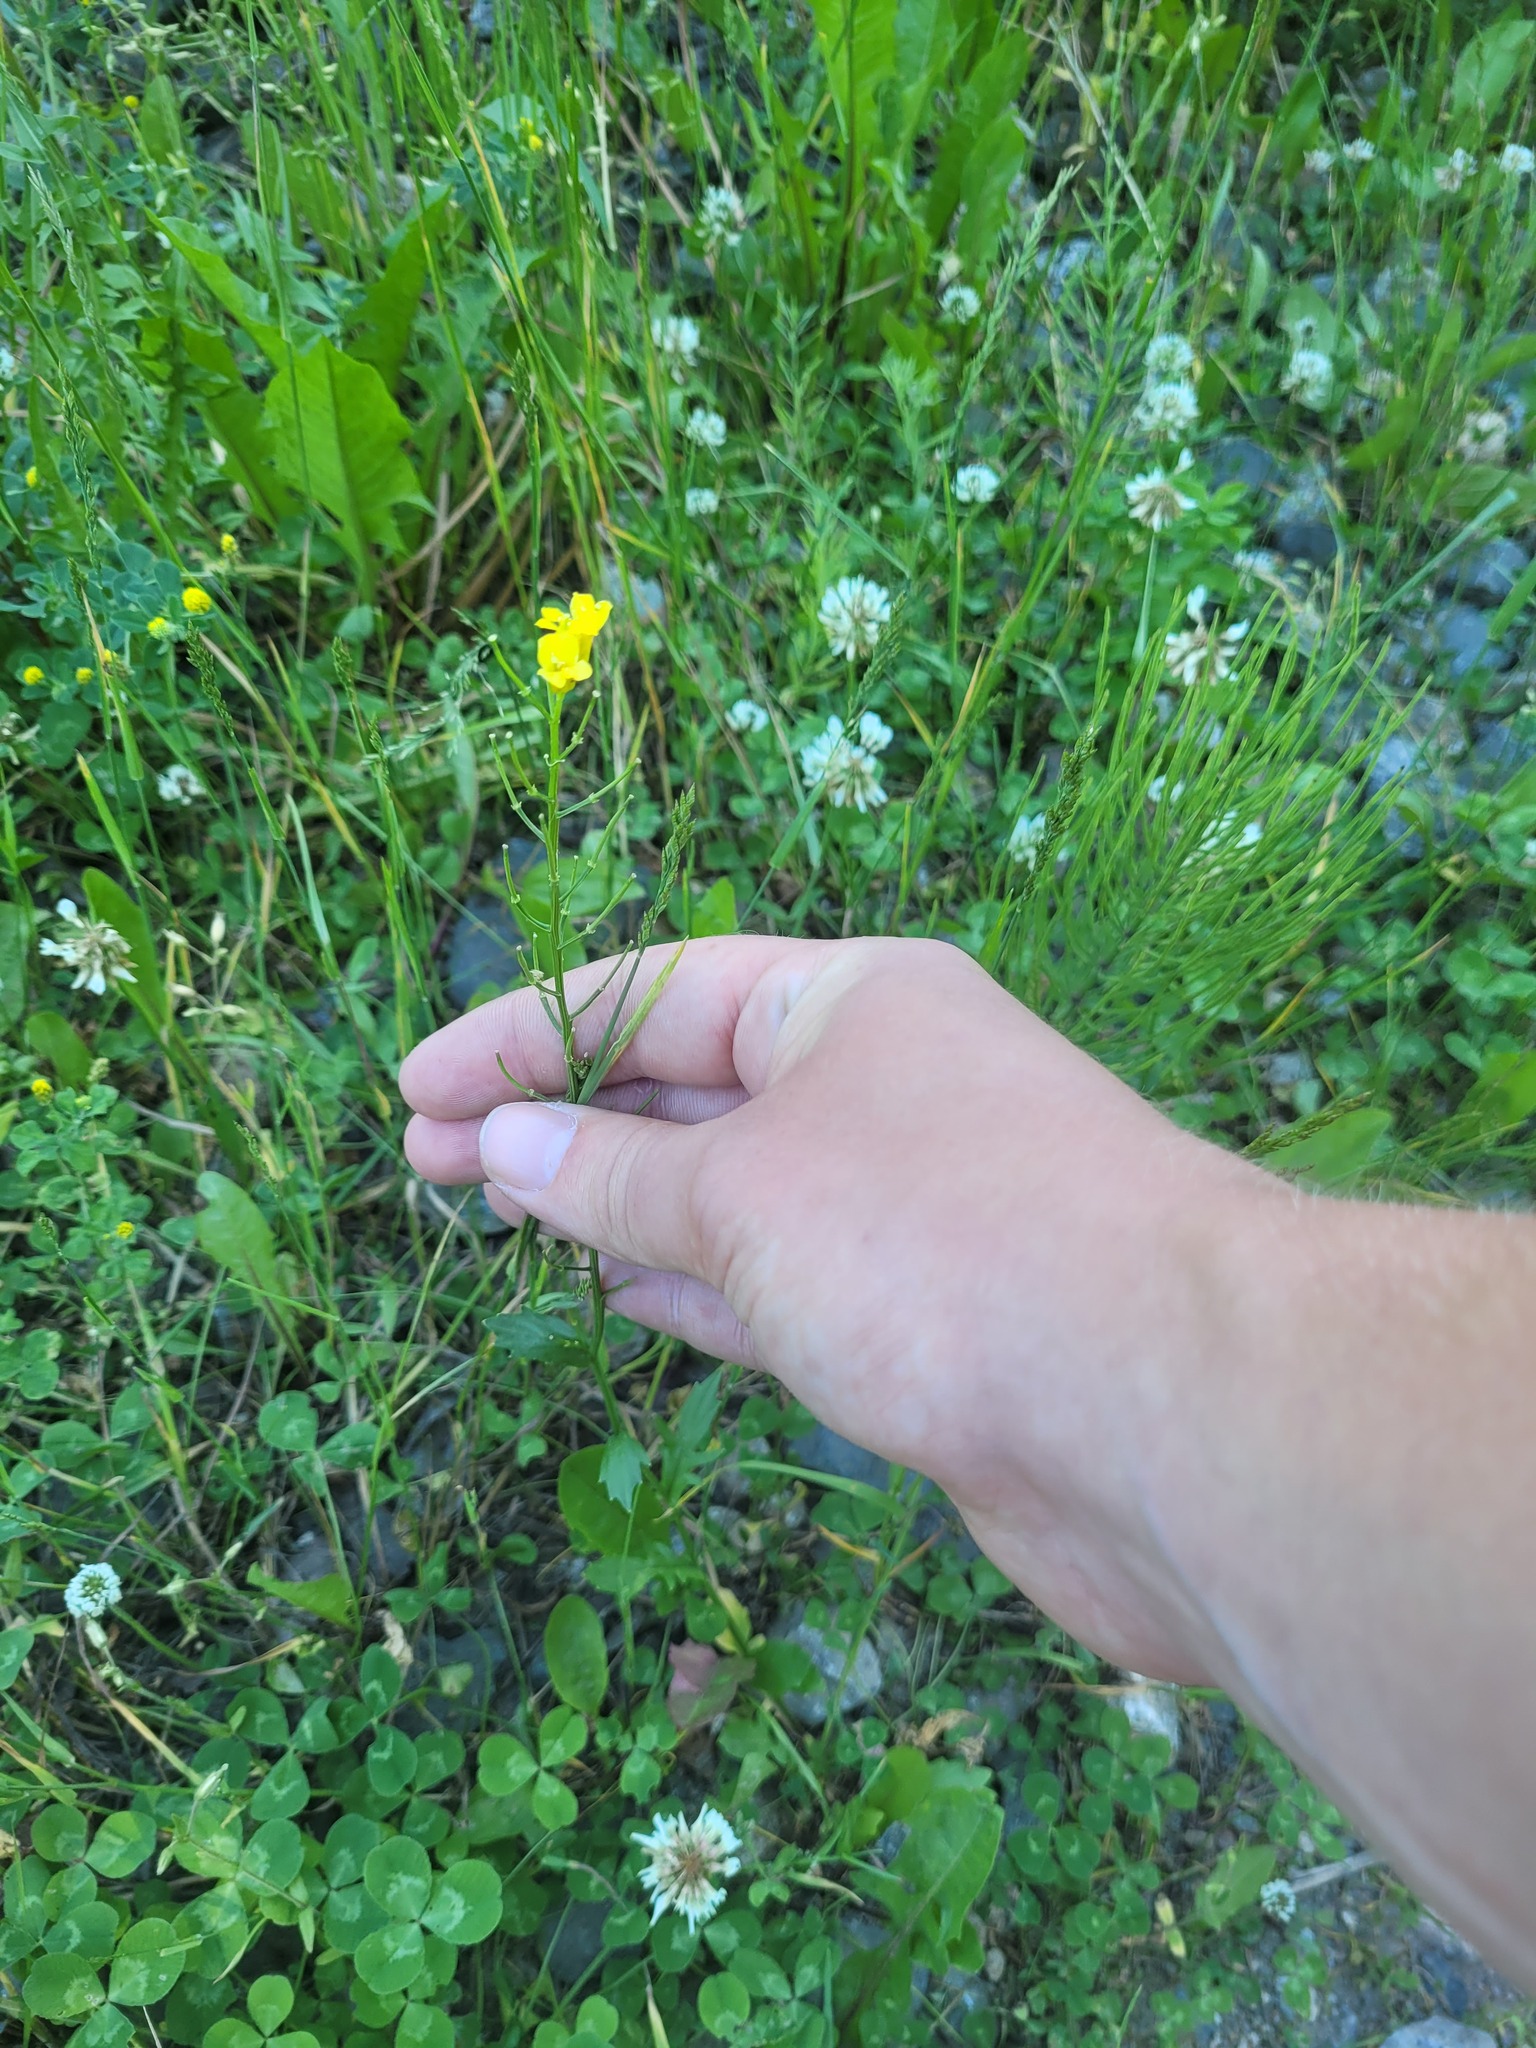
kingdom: Plantae
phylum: Tracheophyta
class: Magnoliopsida
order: Brassicales
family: Brassicaceae
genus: Barbarea
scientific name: Barbarea vulgaris
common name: Cressy-greens
